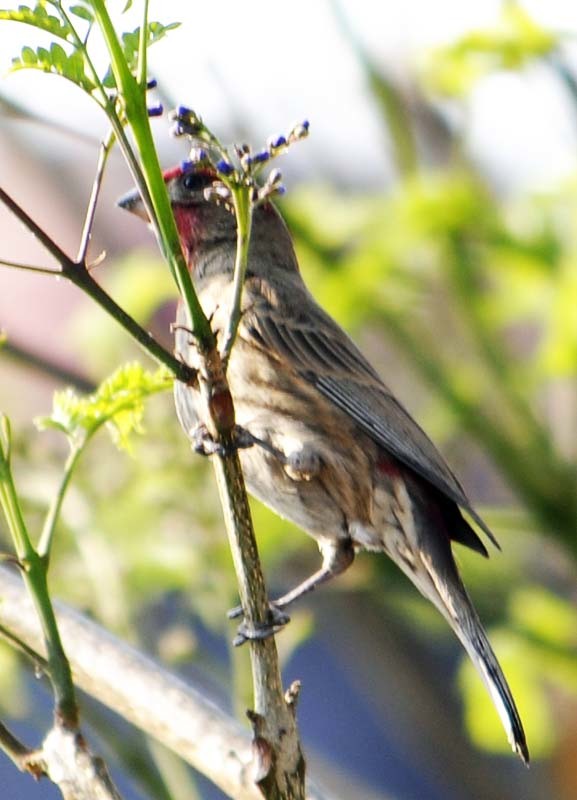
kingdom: Animalia
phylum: Chordata
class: Aves
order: Passeriformes
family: Fringillidae
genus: Haemorhous
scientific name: Haemorhous mexicanus
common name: House finch
